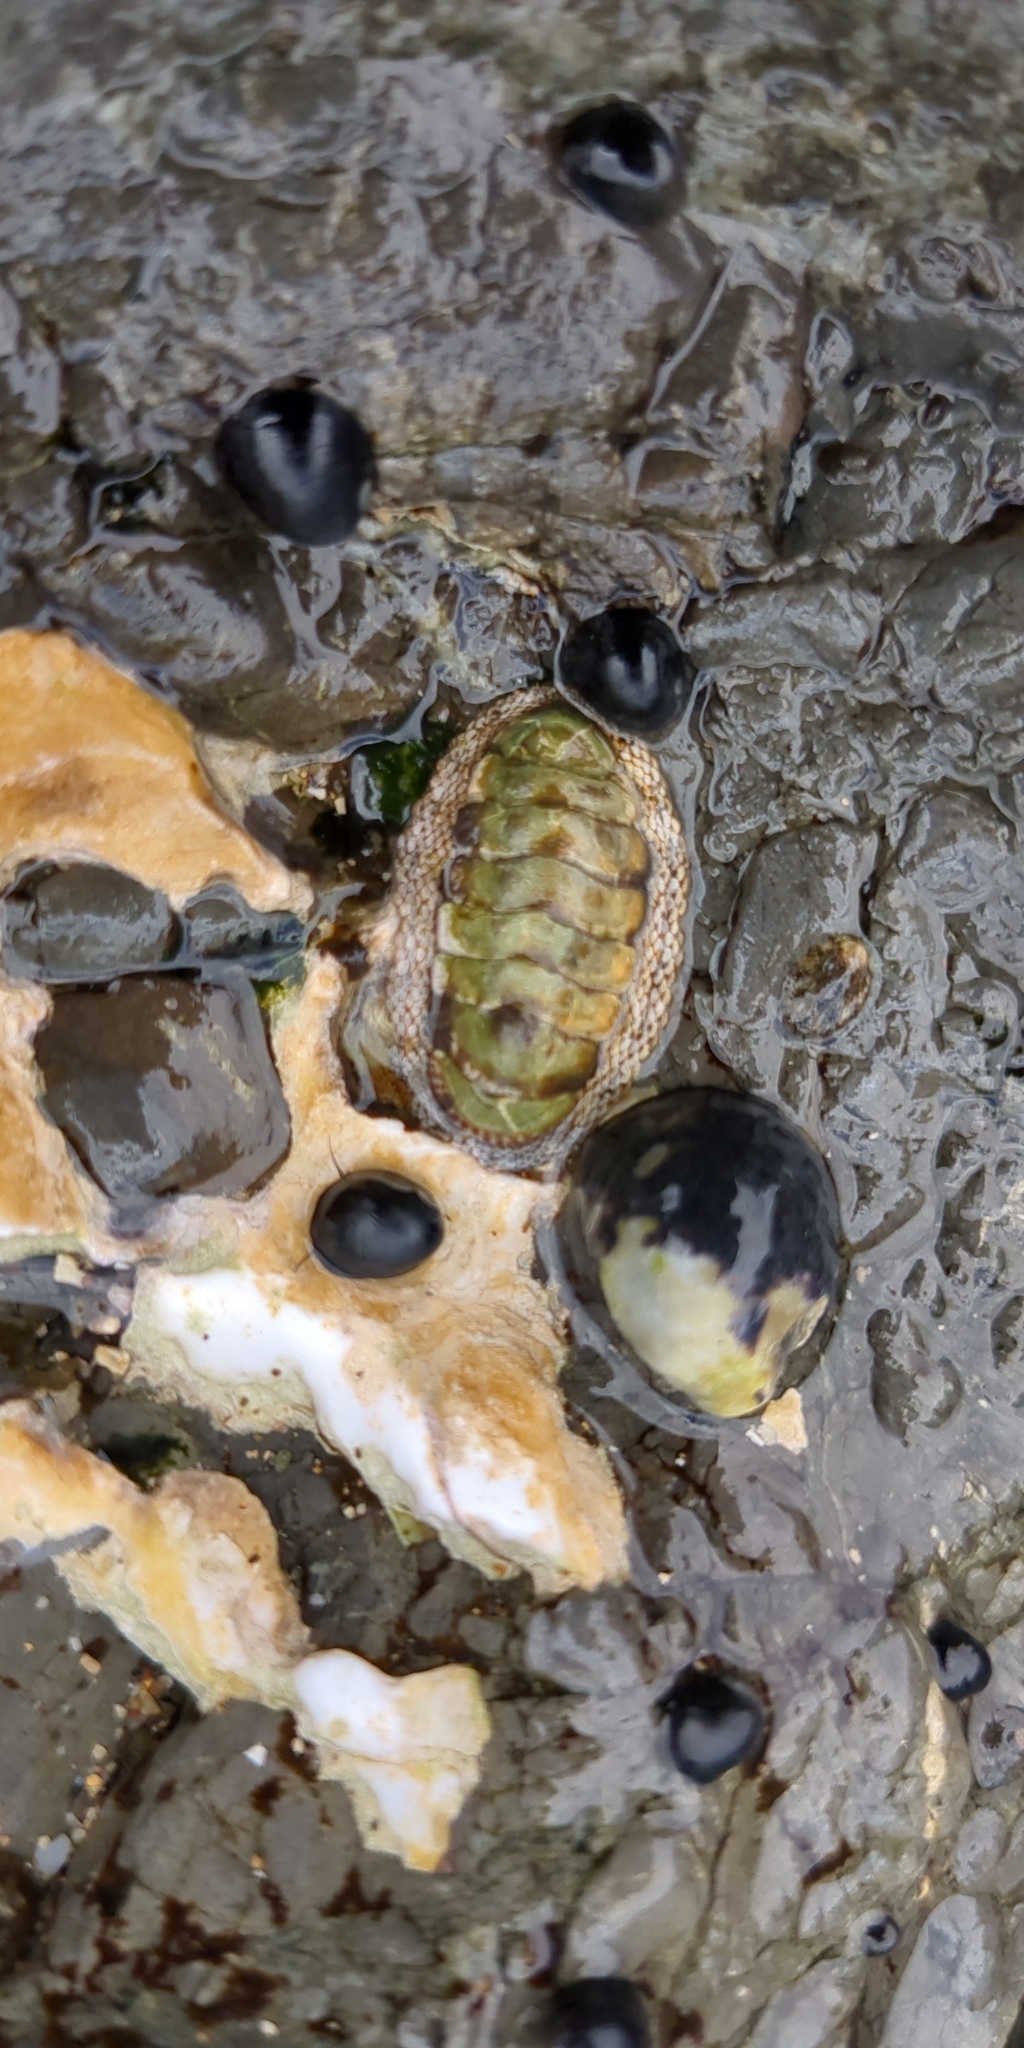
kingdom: Animalia
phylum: Mollusca
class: Polyplacophora
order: Chitonida
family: Chitonidae
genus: Sypharochiton
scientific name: Sypharochiton pelliserpentis
